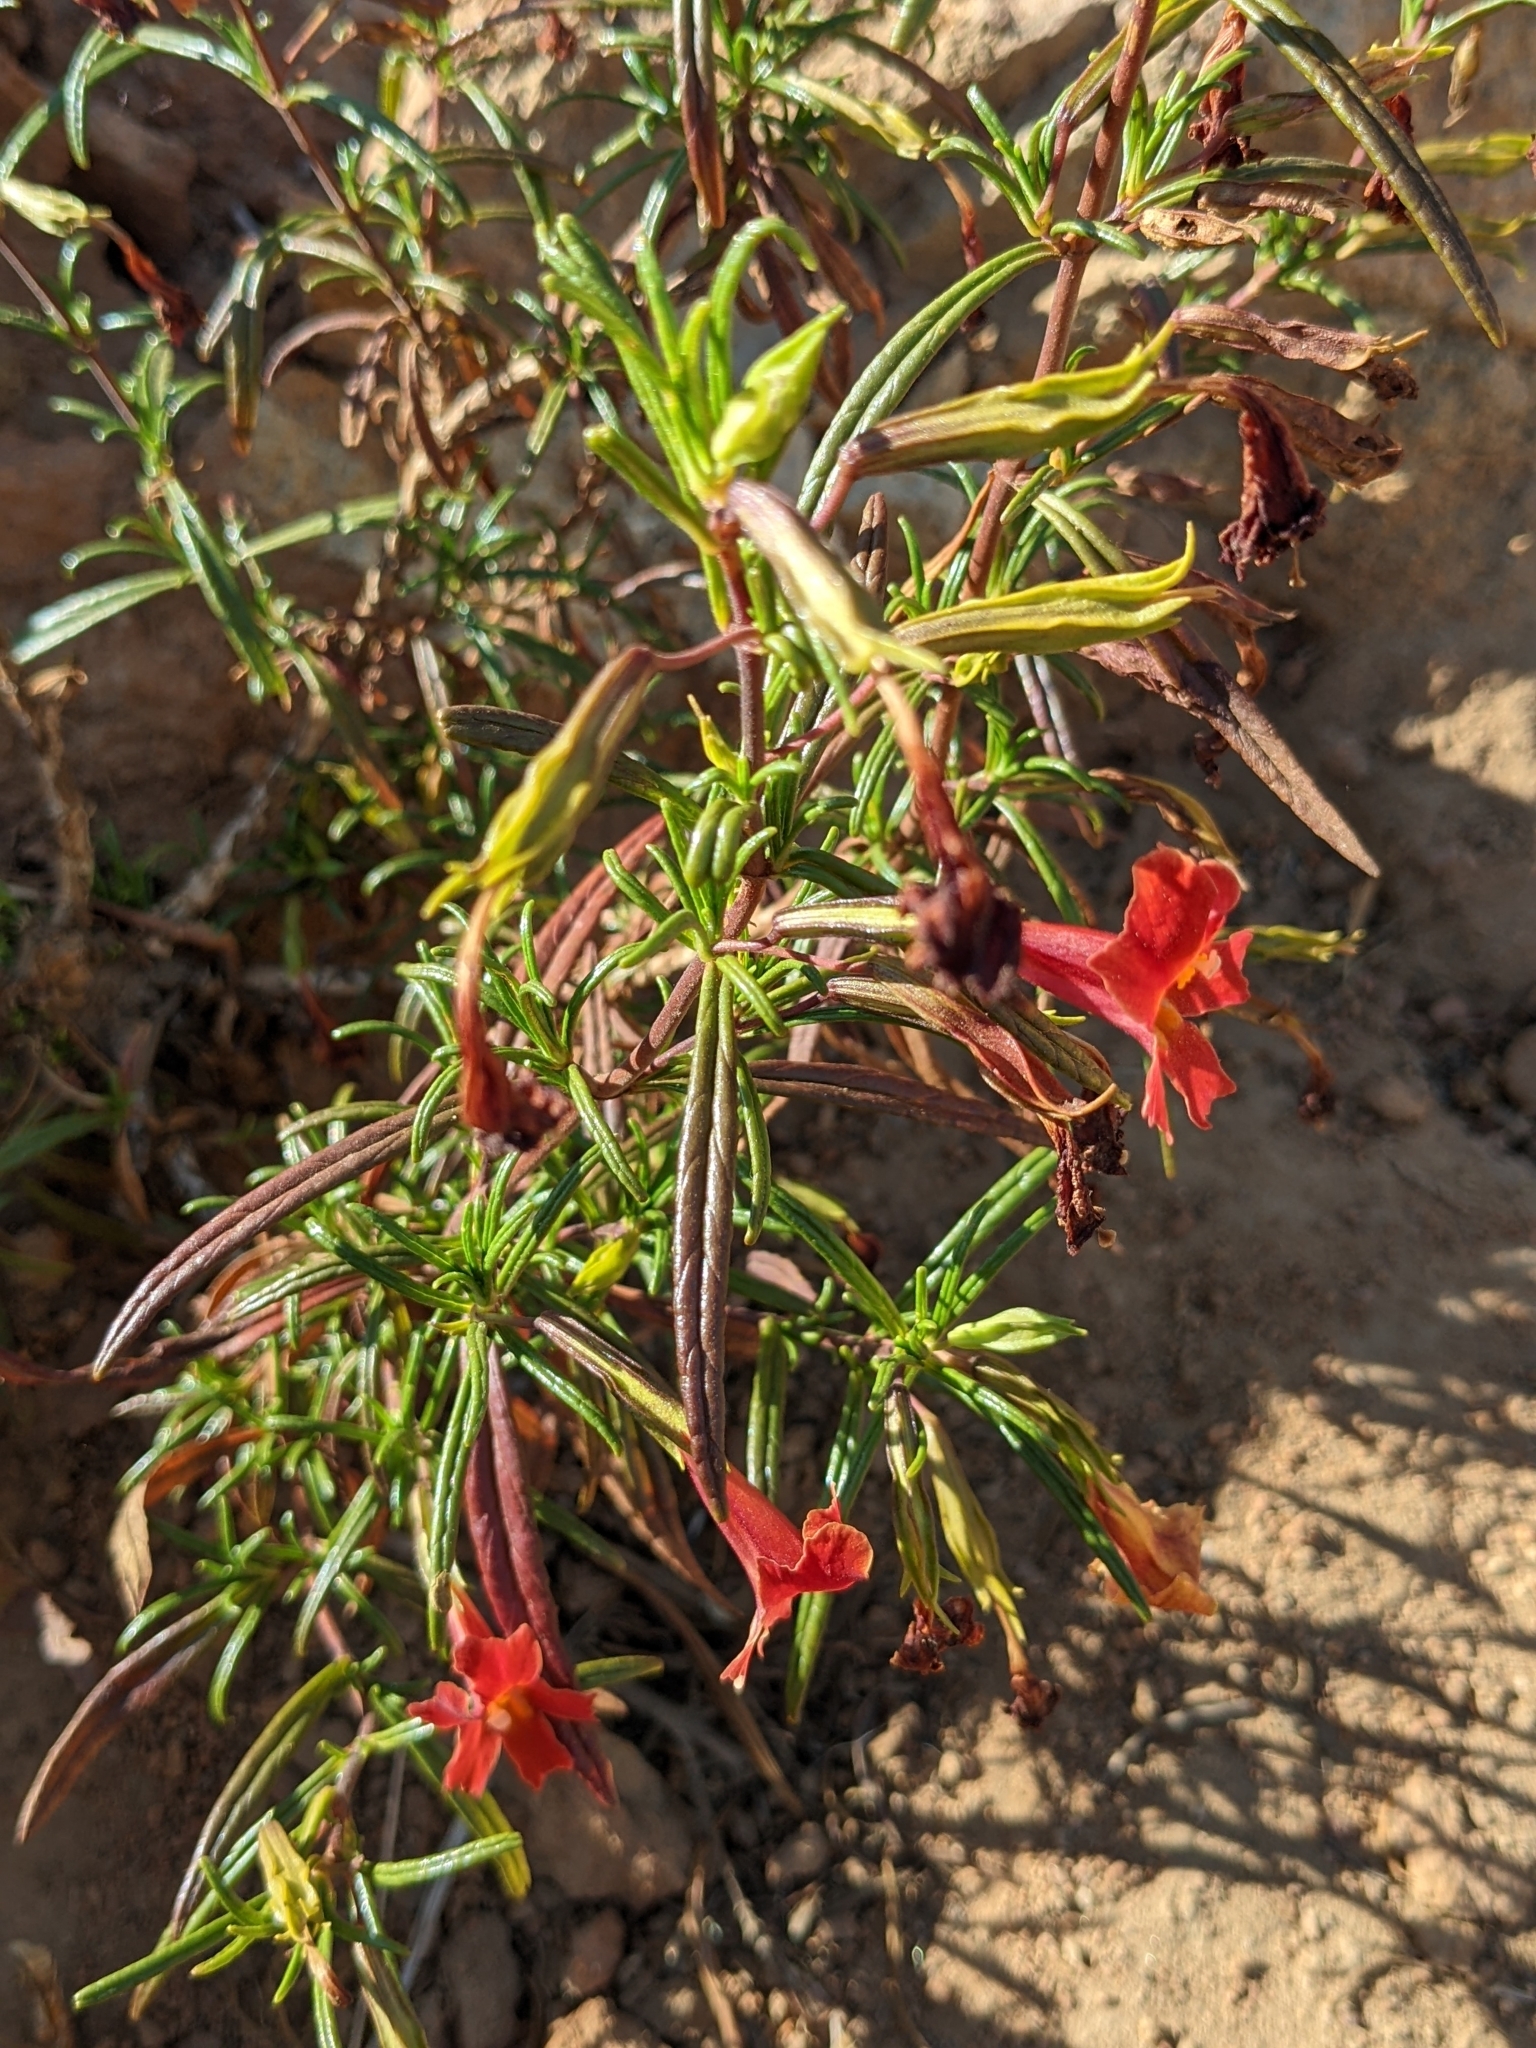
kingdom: Plantae
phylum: Tracheophyta
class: Magnoliopsida
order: Lamiales
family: Phrymaceae
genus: Diplacus
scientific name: Diplacus puniceus
